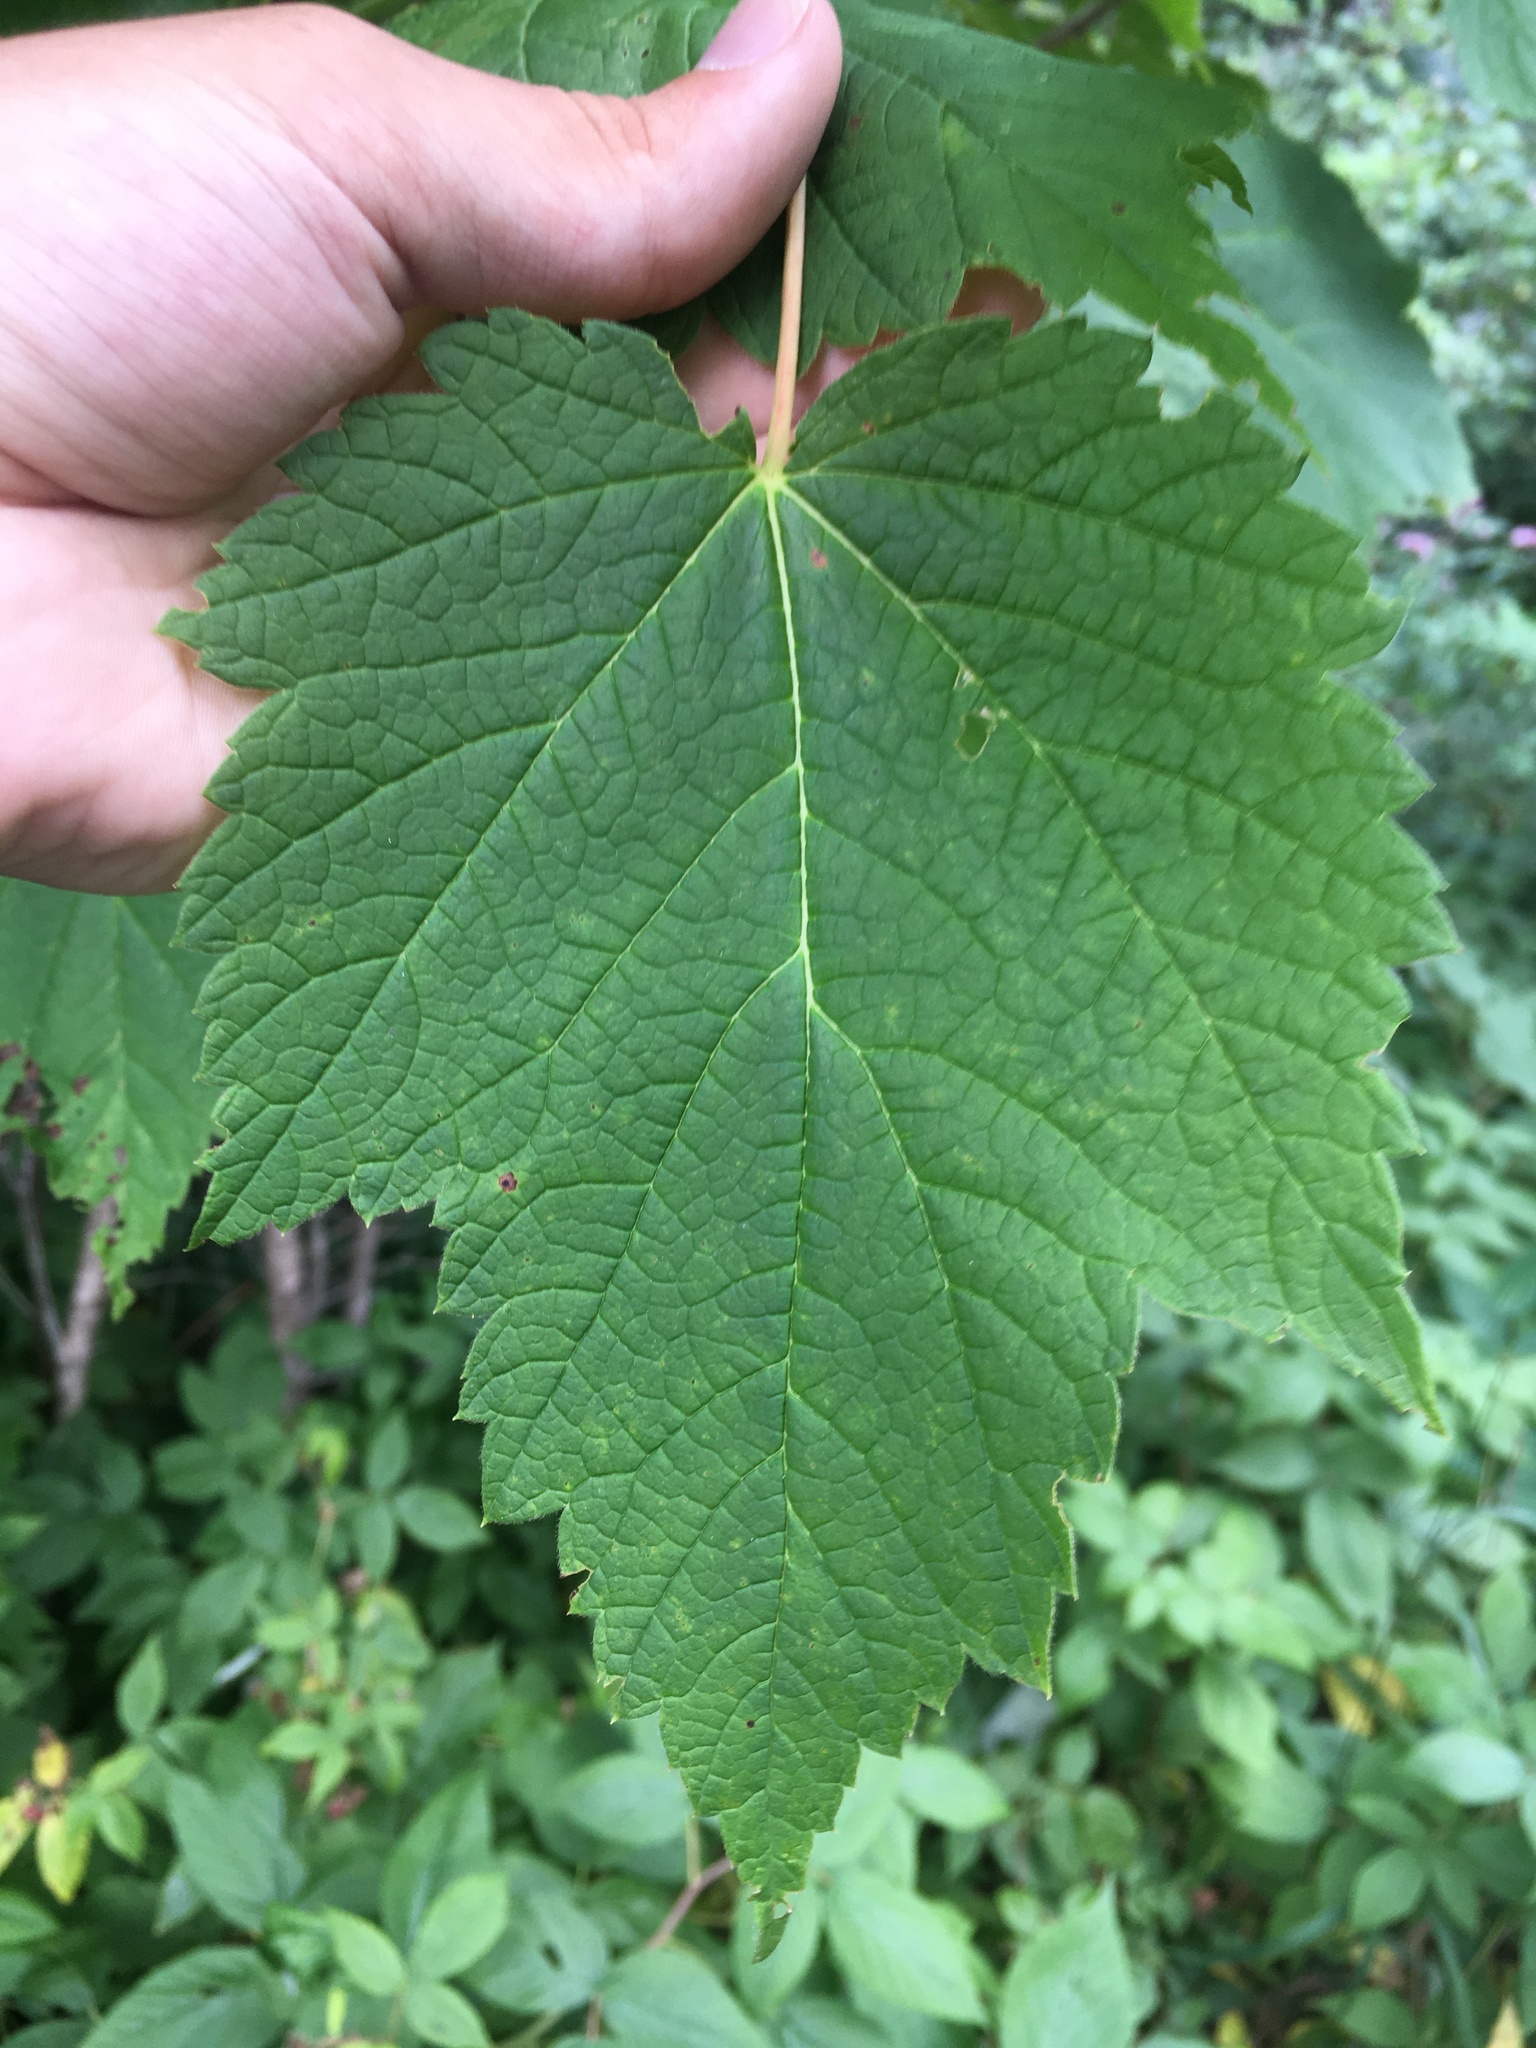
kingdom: Plantae
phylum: Tracheophyta
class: Magnoliopsida
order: Sapindales
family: Sapindaceae
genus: Acer
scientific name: Acer spicatum
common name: Mountain maple
